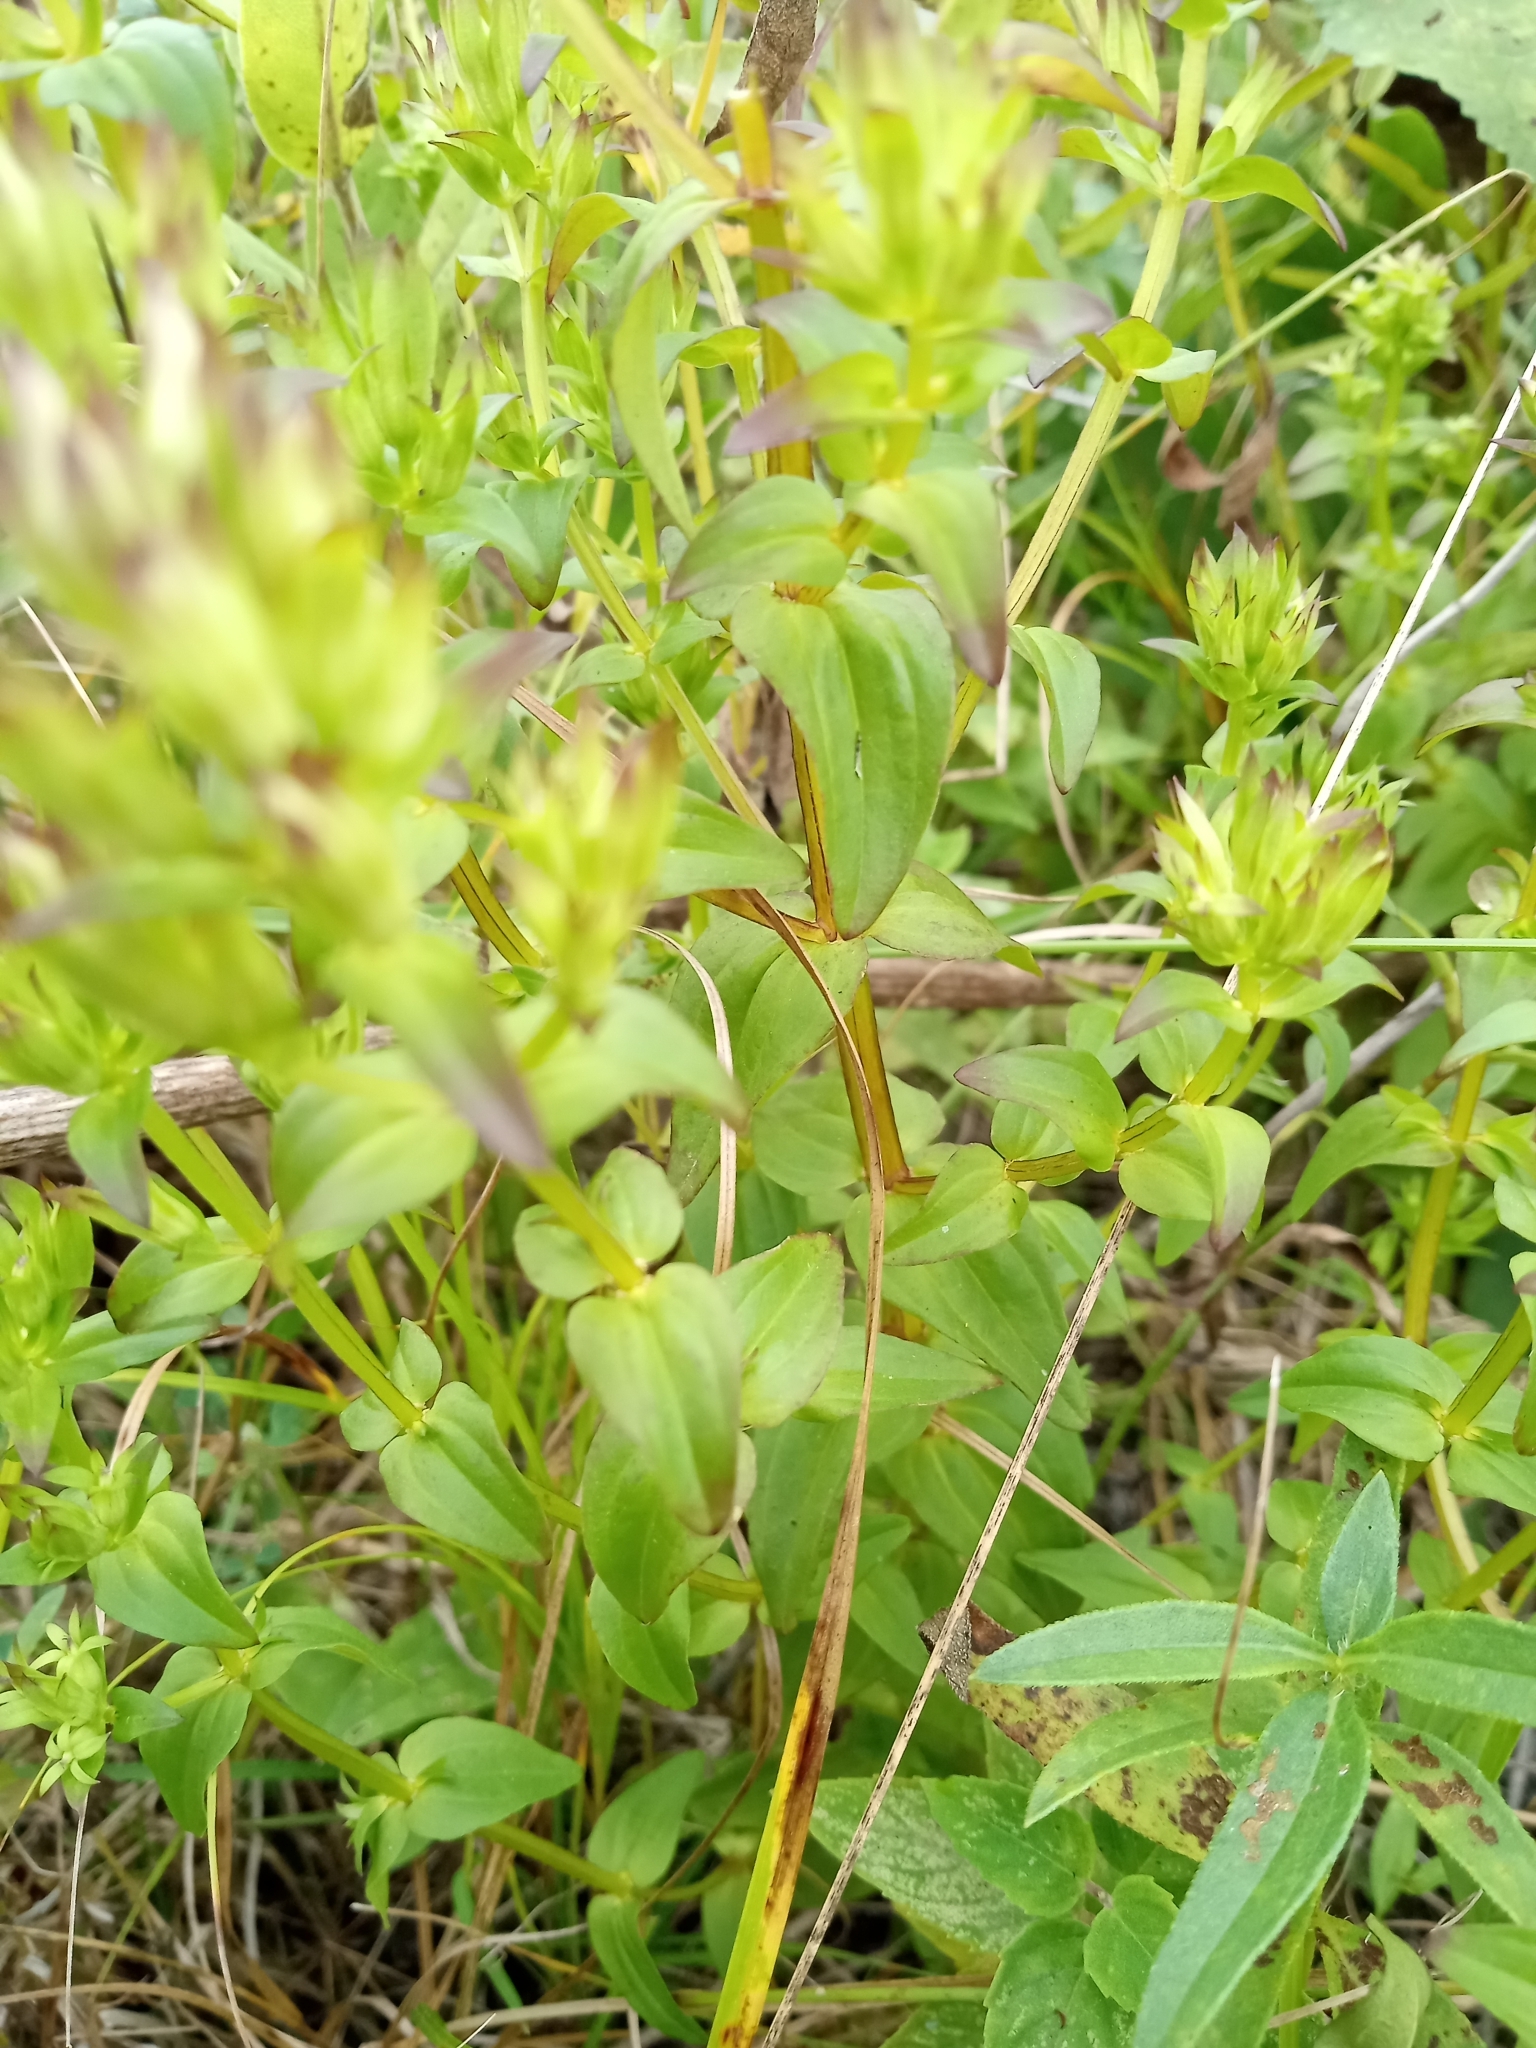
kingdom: Plantae
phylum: Tracheophyta
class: Magnoliopsida
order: Gentianales
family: Gentianaceae
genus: Gentianella
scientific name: Gentianella quinquefolia
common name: Agueweed
